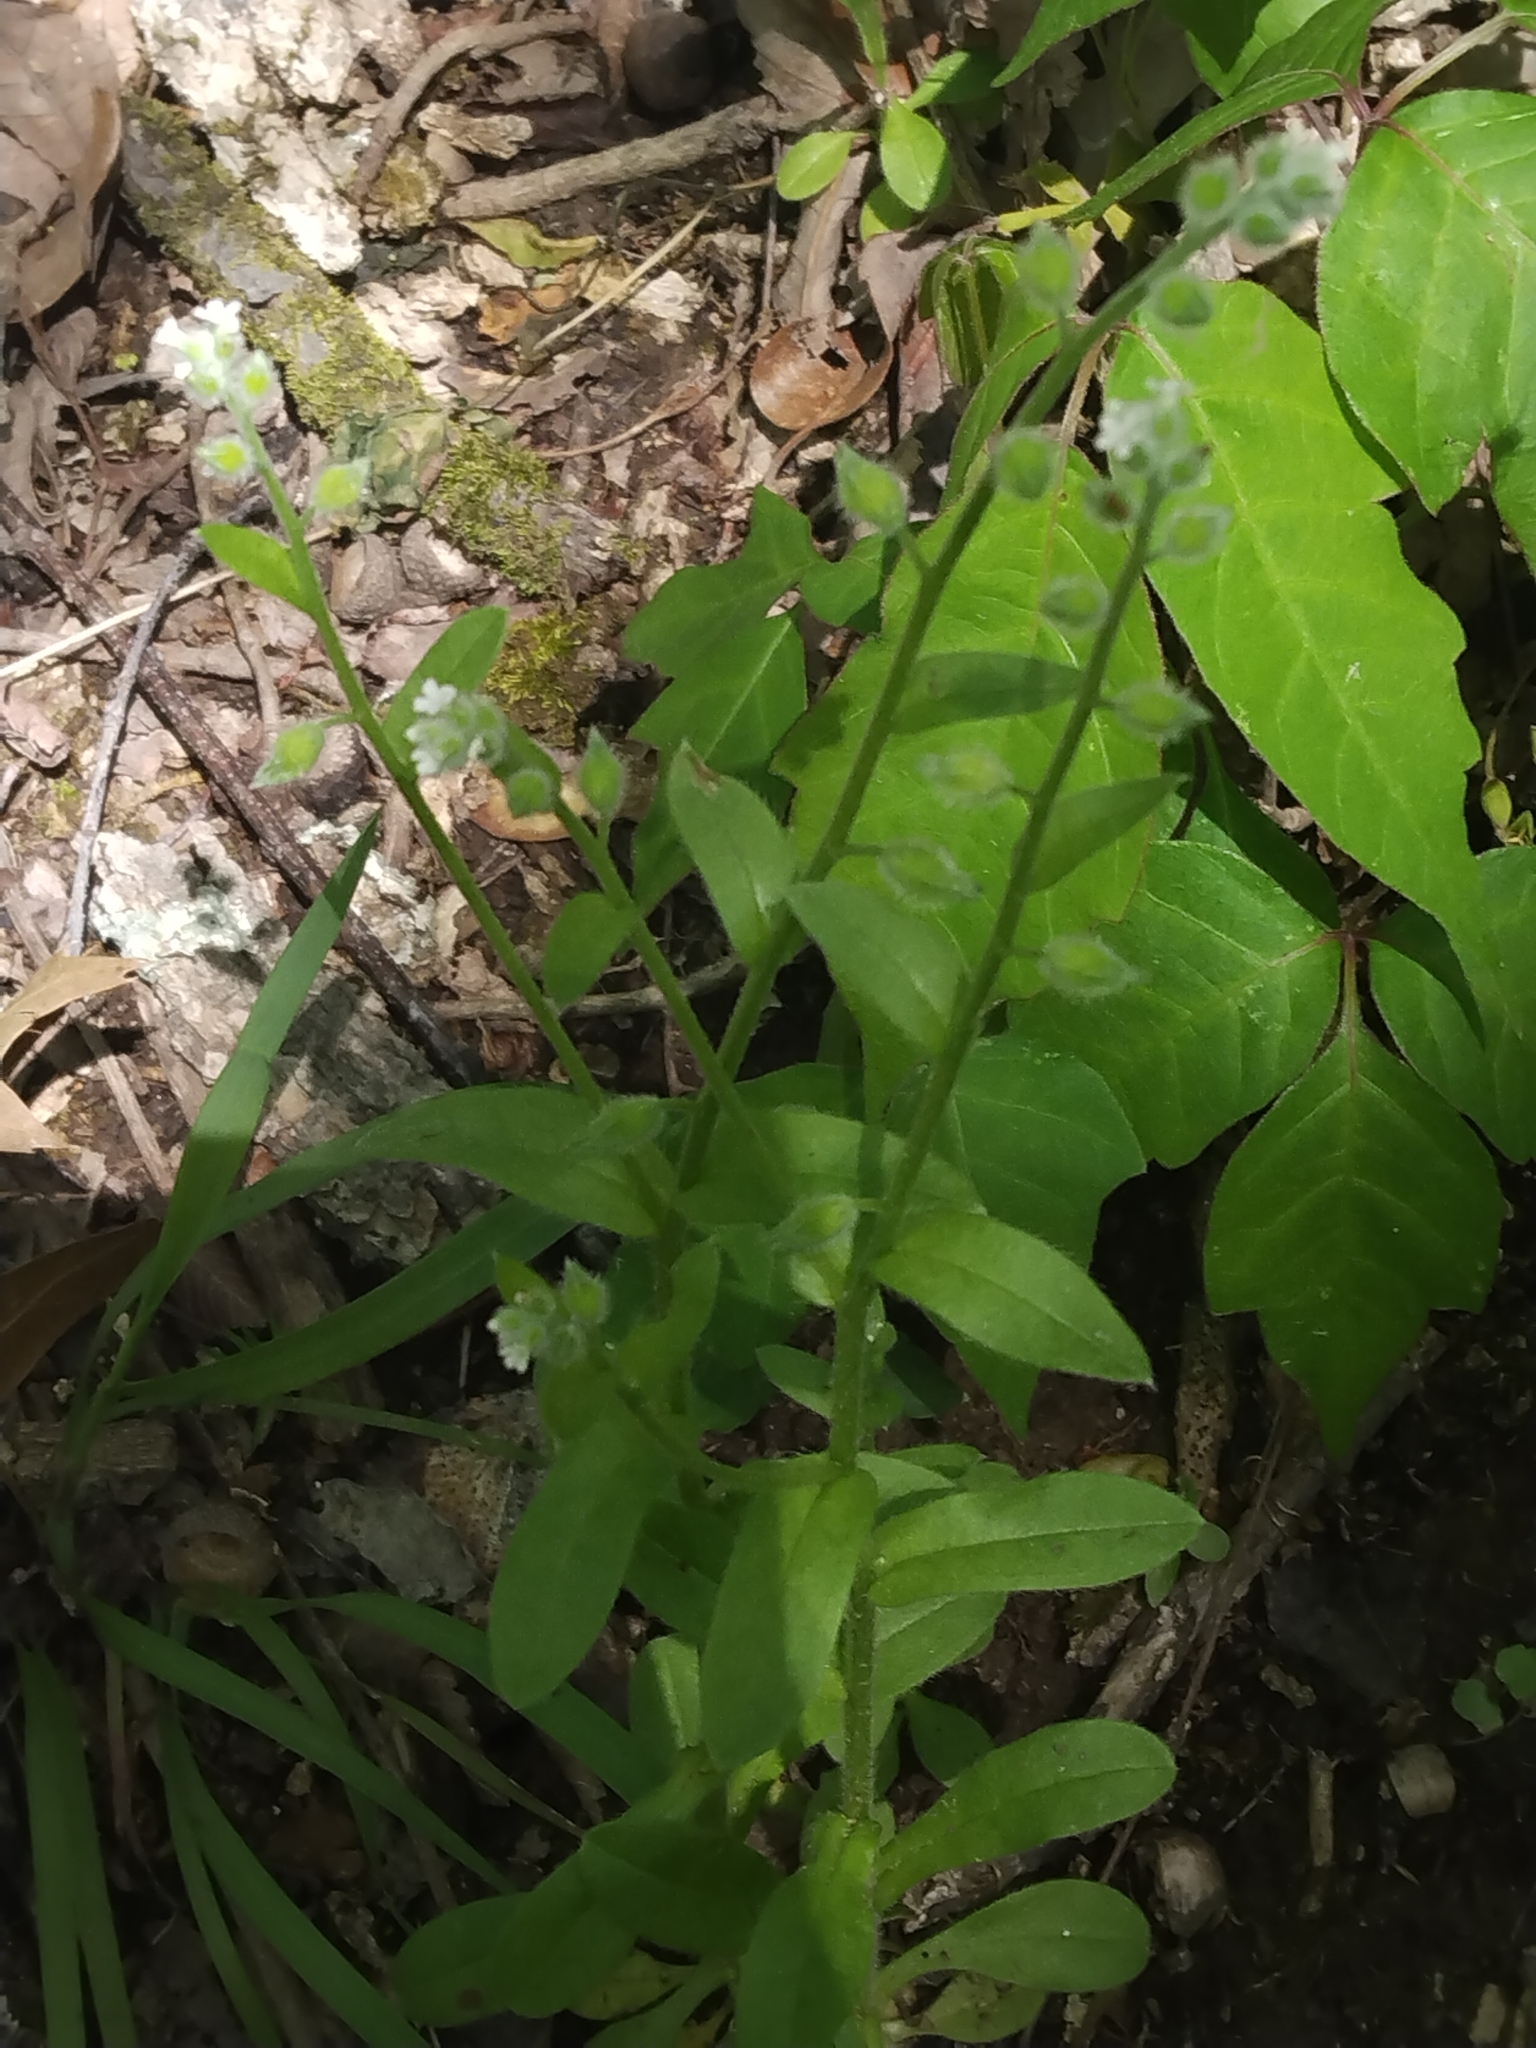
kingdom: Plantae
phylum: Tracheophyta
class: Magnoliopsida
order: Boraginales
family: Boraginaceae
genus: Myosotis
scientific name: Myosotis macrosperma
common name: Large-seed forget-me-not
